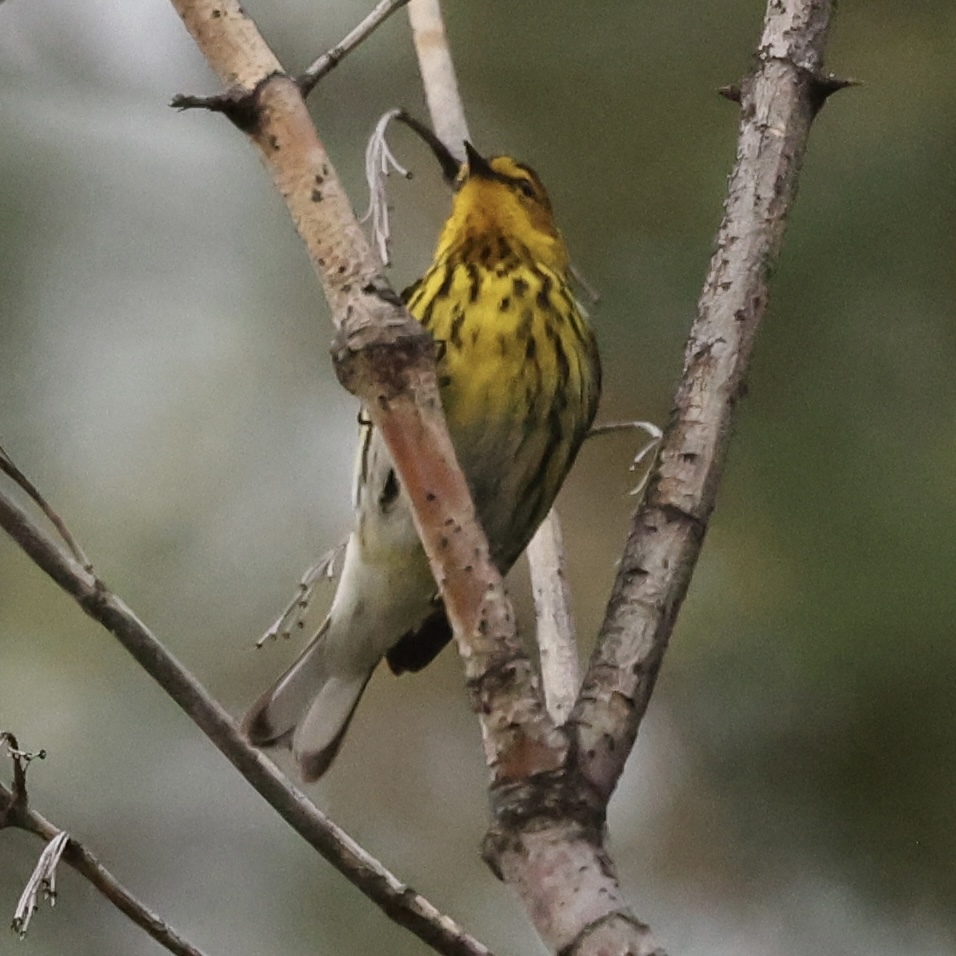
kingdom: Animalia
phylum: Chordata
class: Aves
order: Passeriformes
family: Parulidae
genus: Setophaga
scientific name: Setophaga tigrina
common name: Cape may warbler
